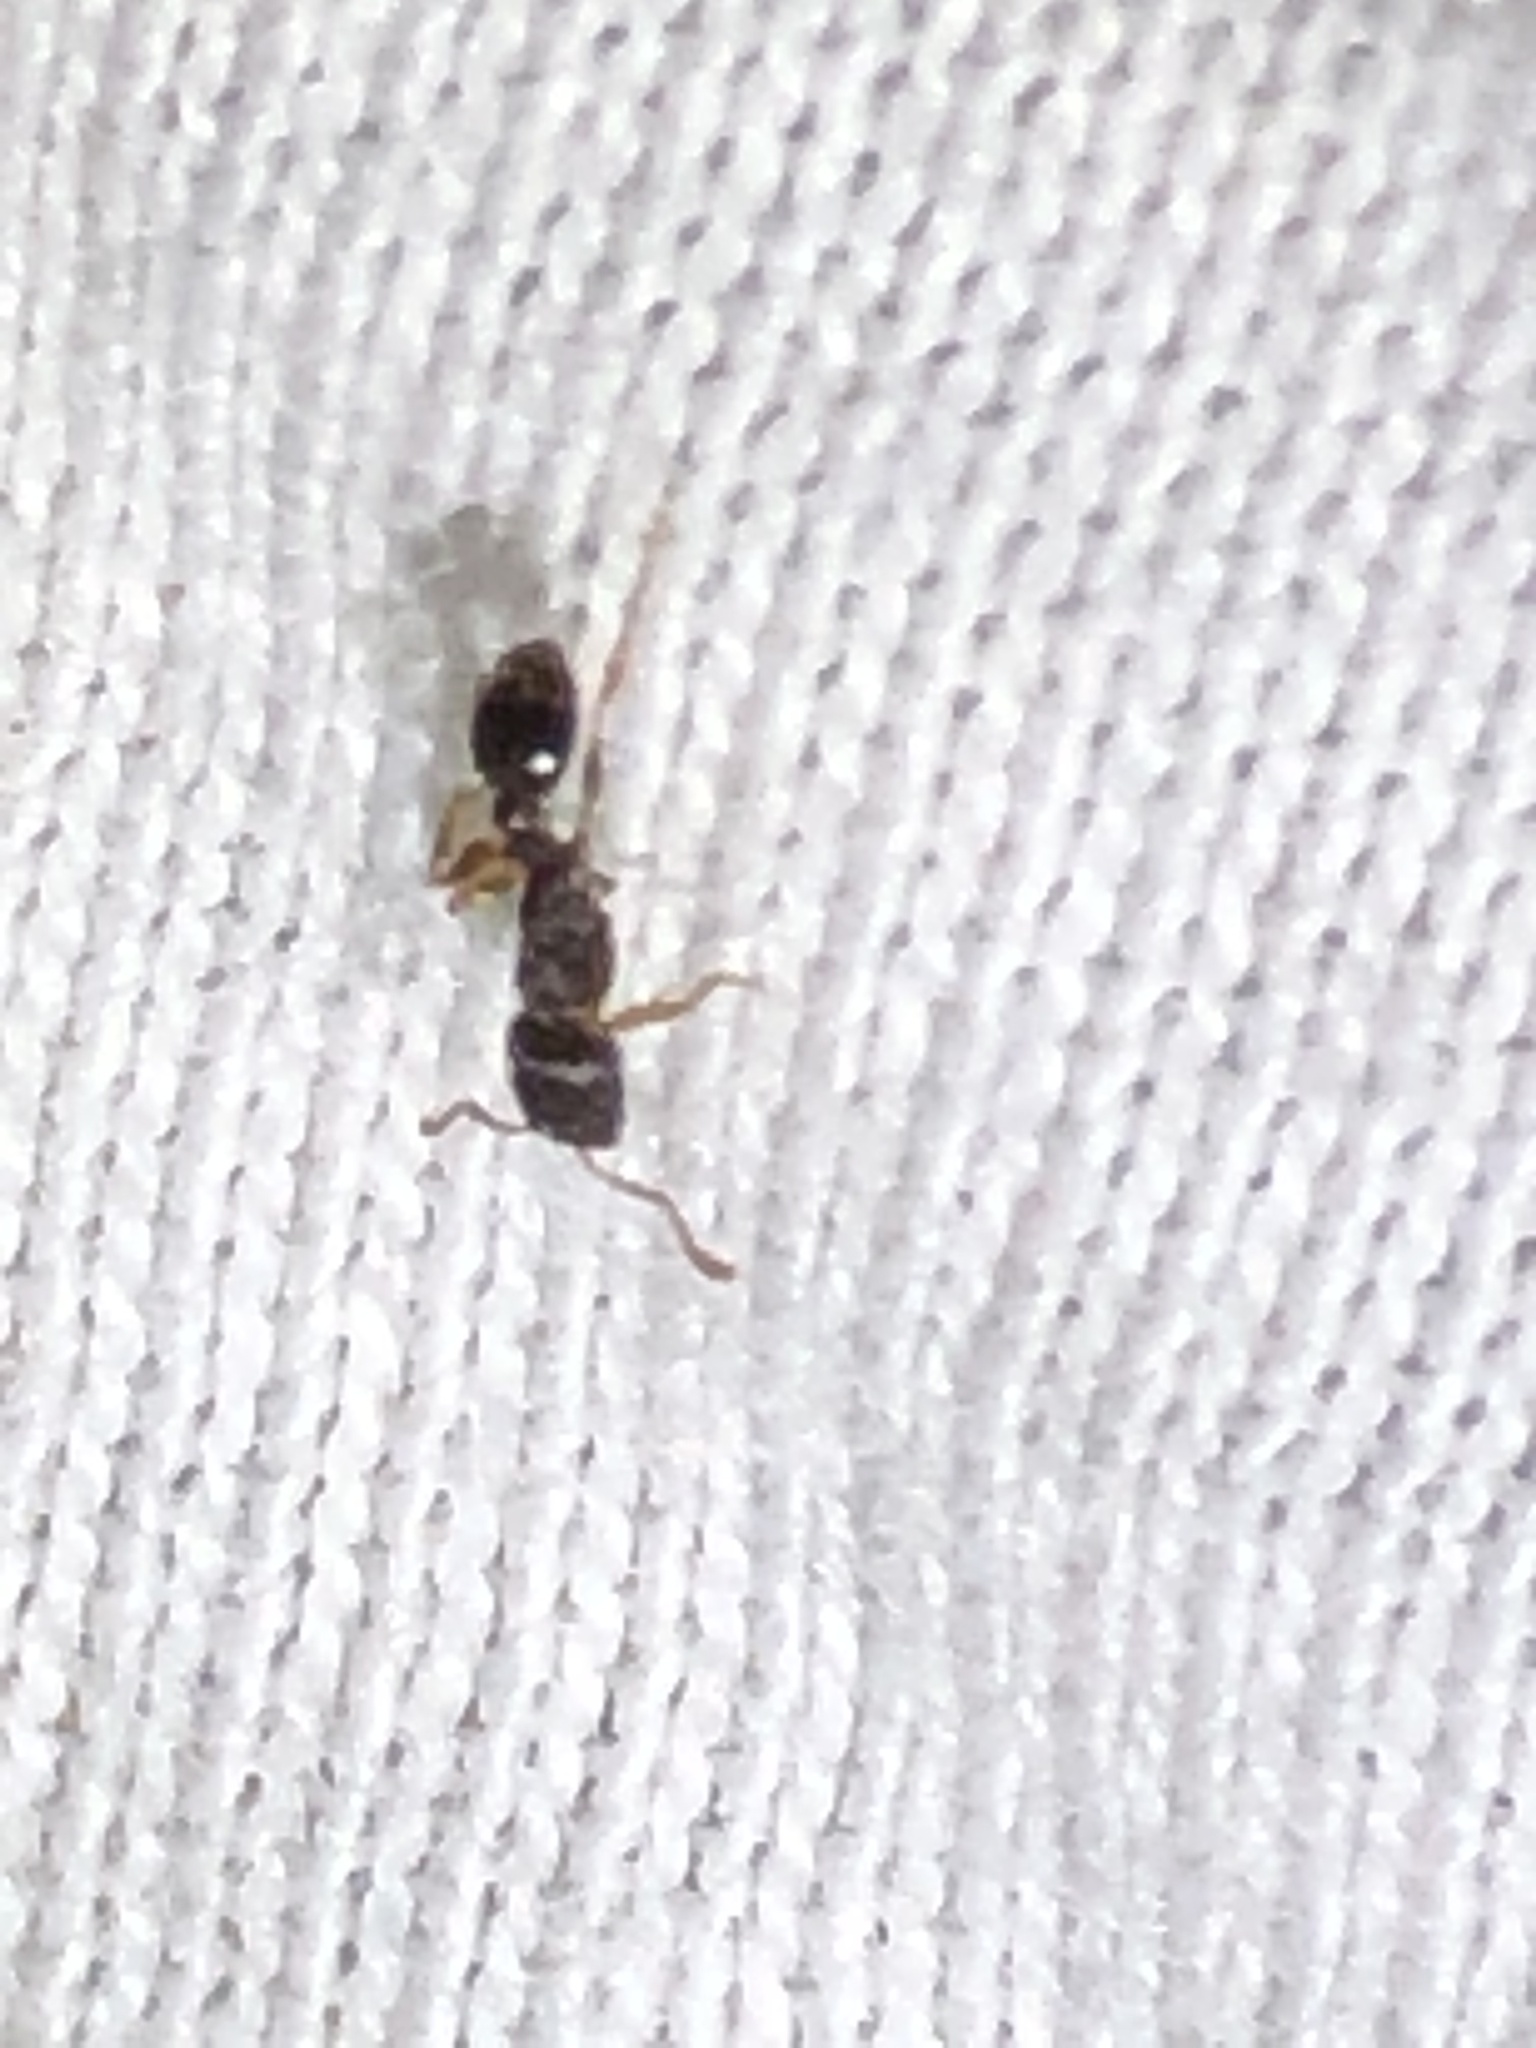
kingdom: Animalia
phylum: Arthropoda
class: Insecta
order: Hymenoptera
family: Formicidae
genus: Tetramorium
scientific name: Tetramorium immigrans
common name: Pavement ant
